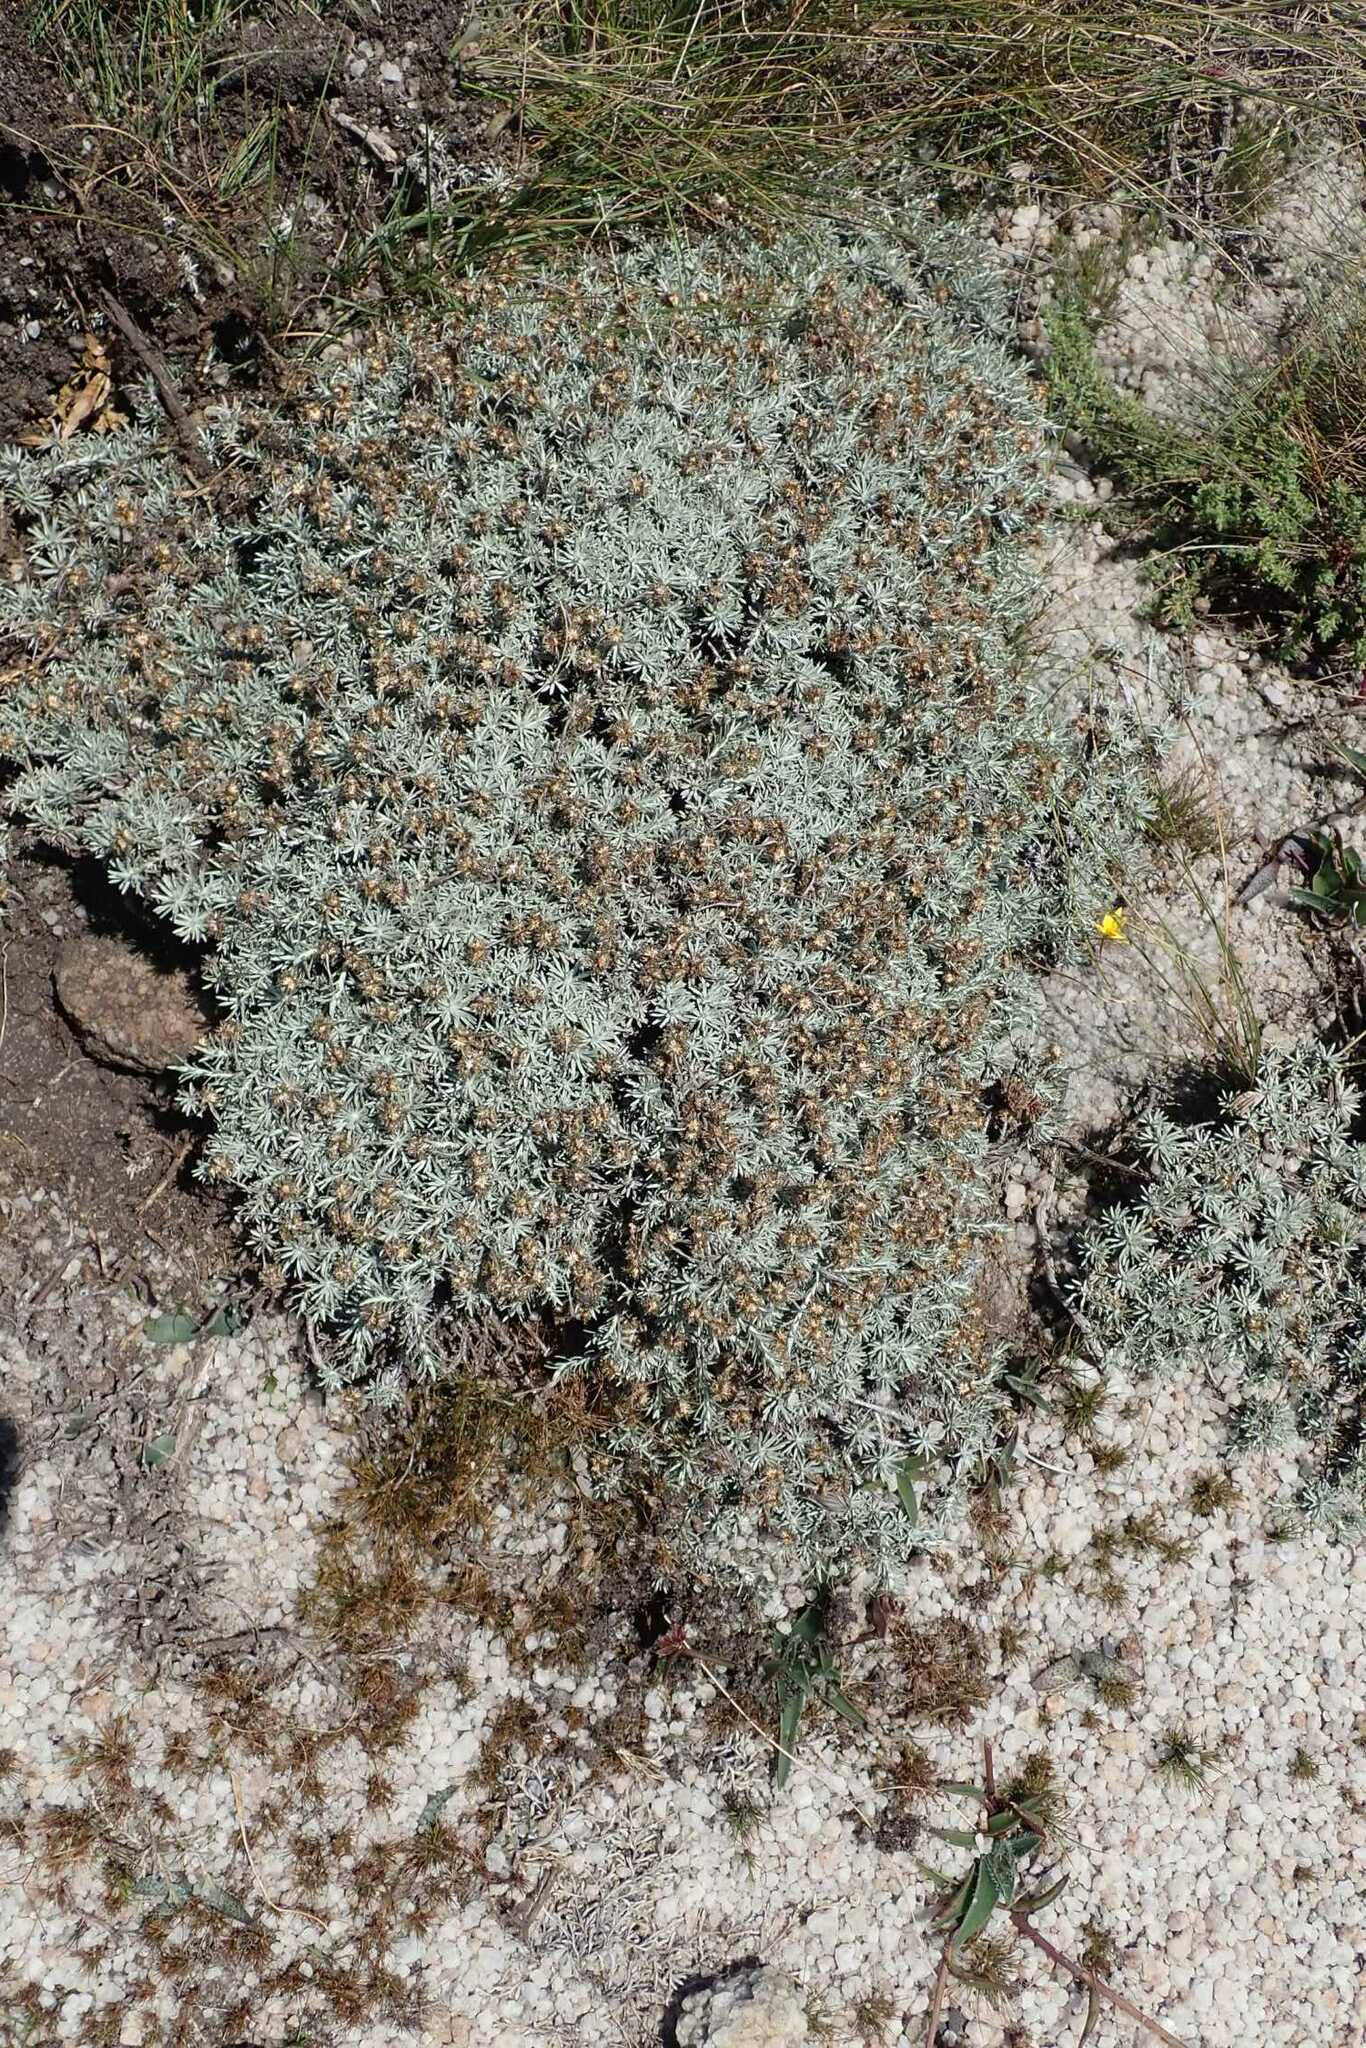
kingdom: Plantae
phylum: Tracheophyta
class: Magnoliopsida
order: Asterales
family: Asteraceae
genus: Helichrysum
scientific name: Helichrysum galpinii
